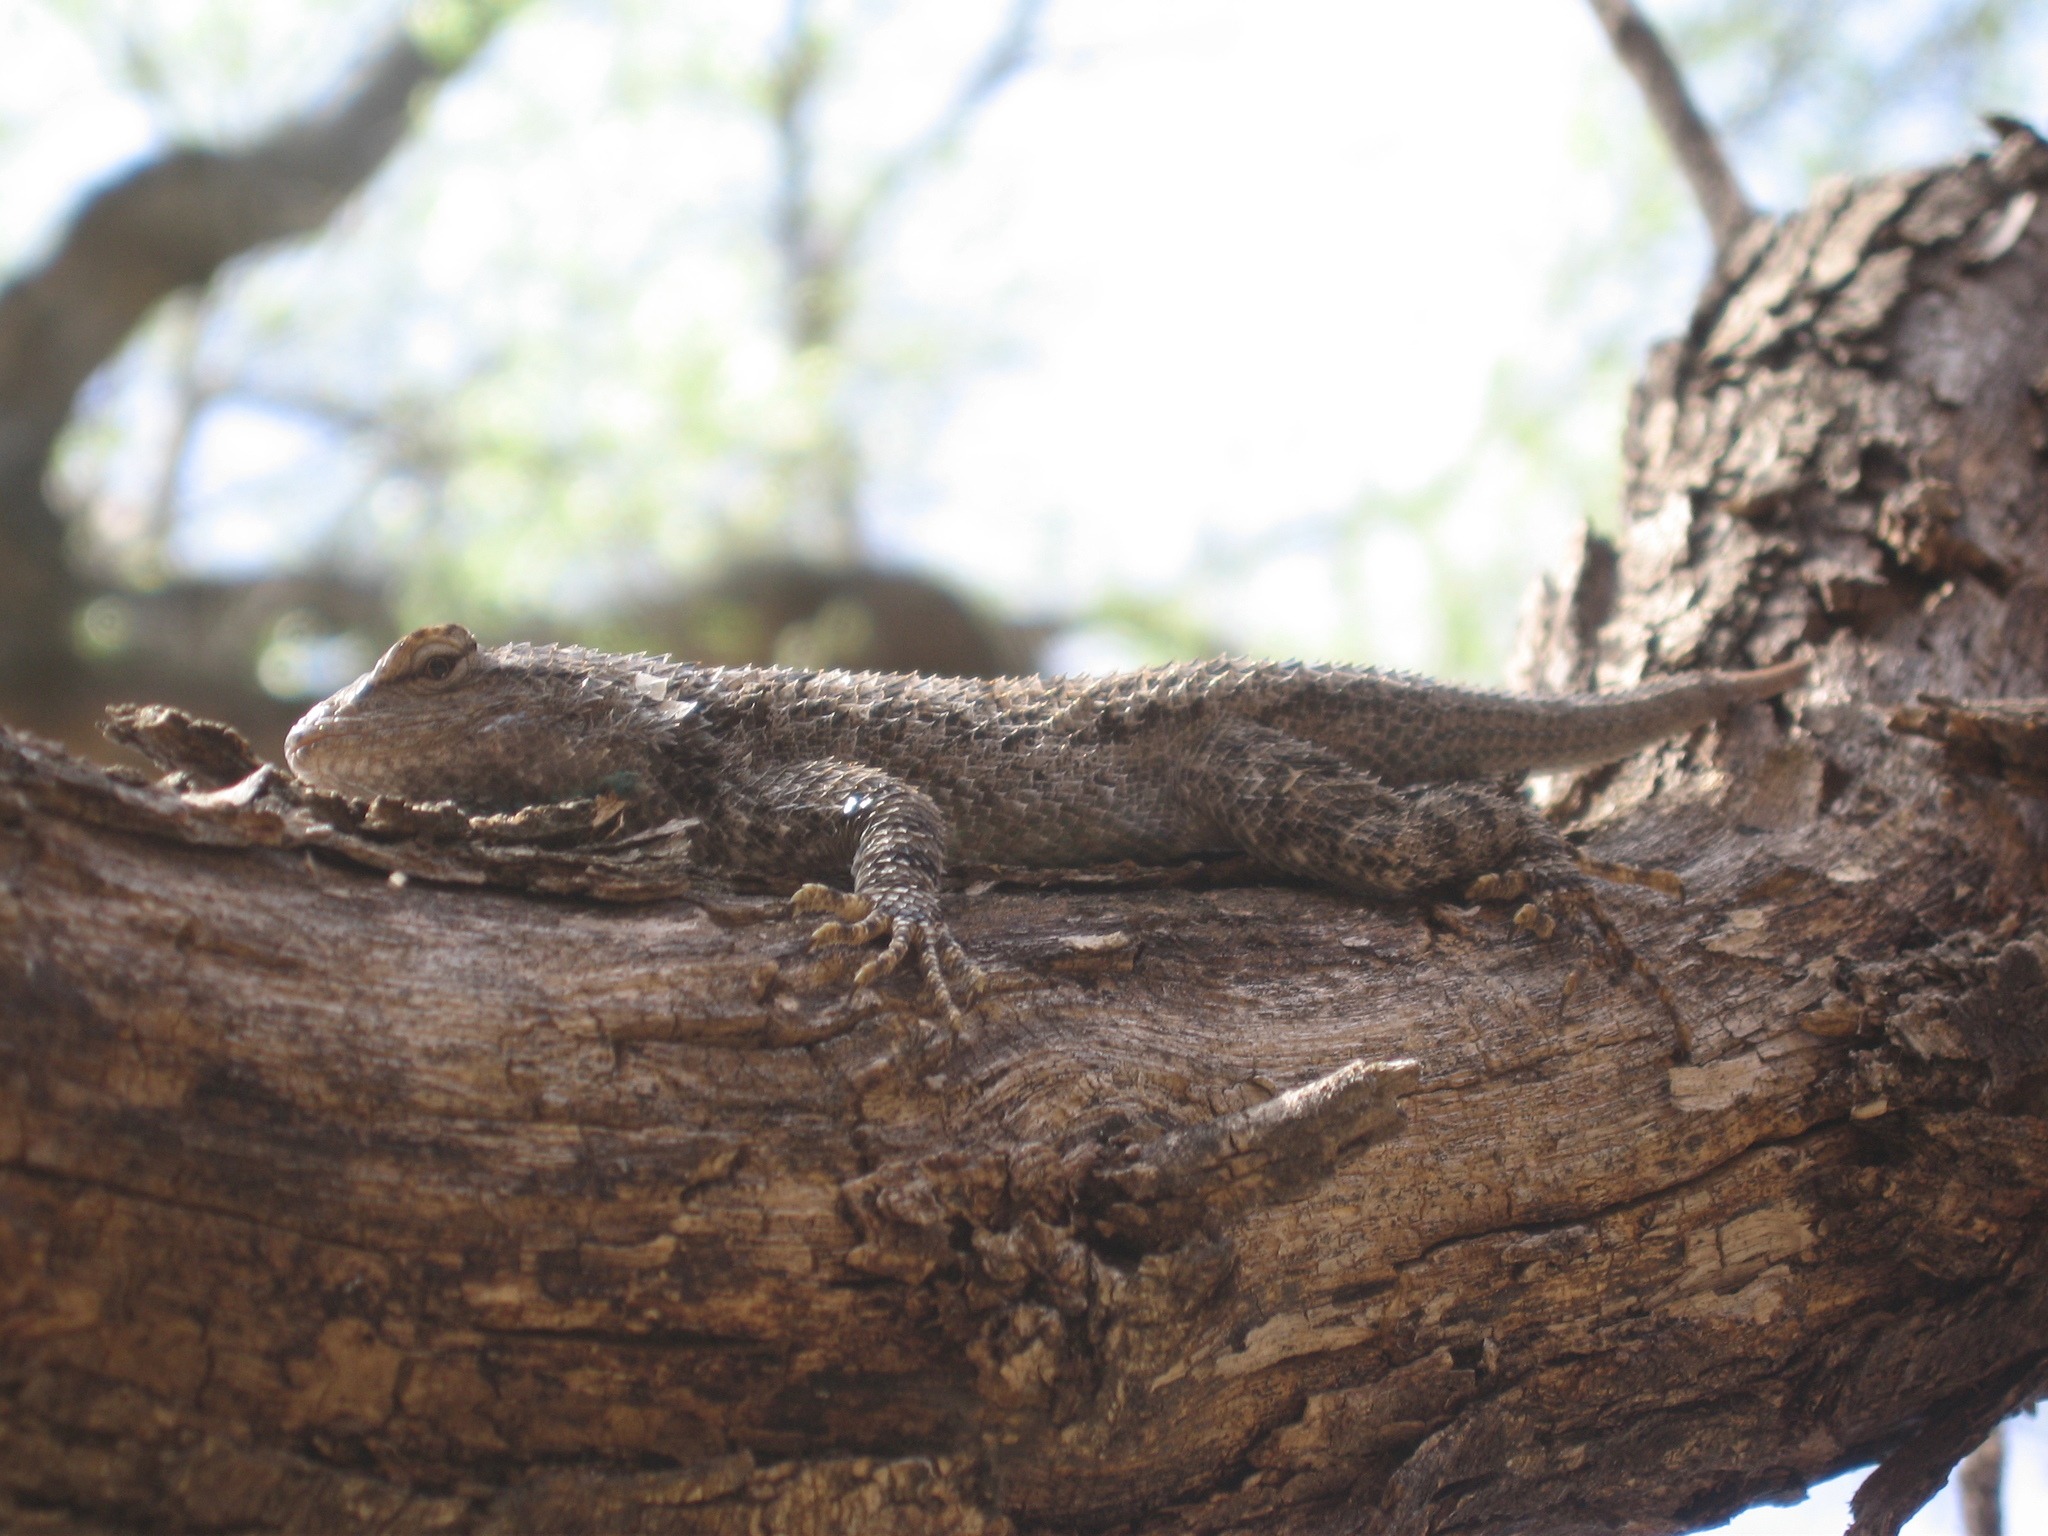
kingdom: Animalia
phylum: Chordata
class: Squamata
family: Phrynosomatidae
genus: Sceloporus
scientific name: Sceloporus clarkii
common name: Clark's spiny lizard
